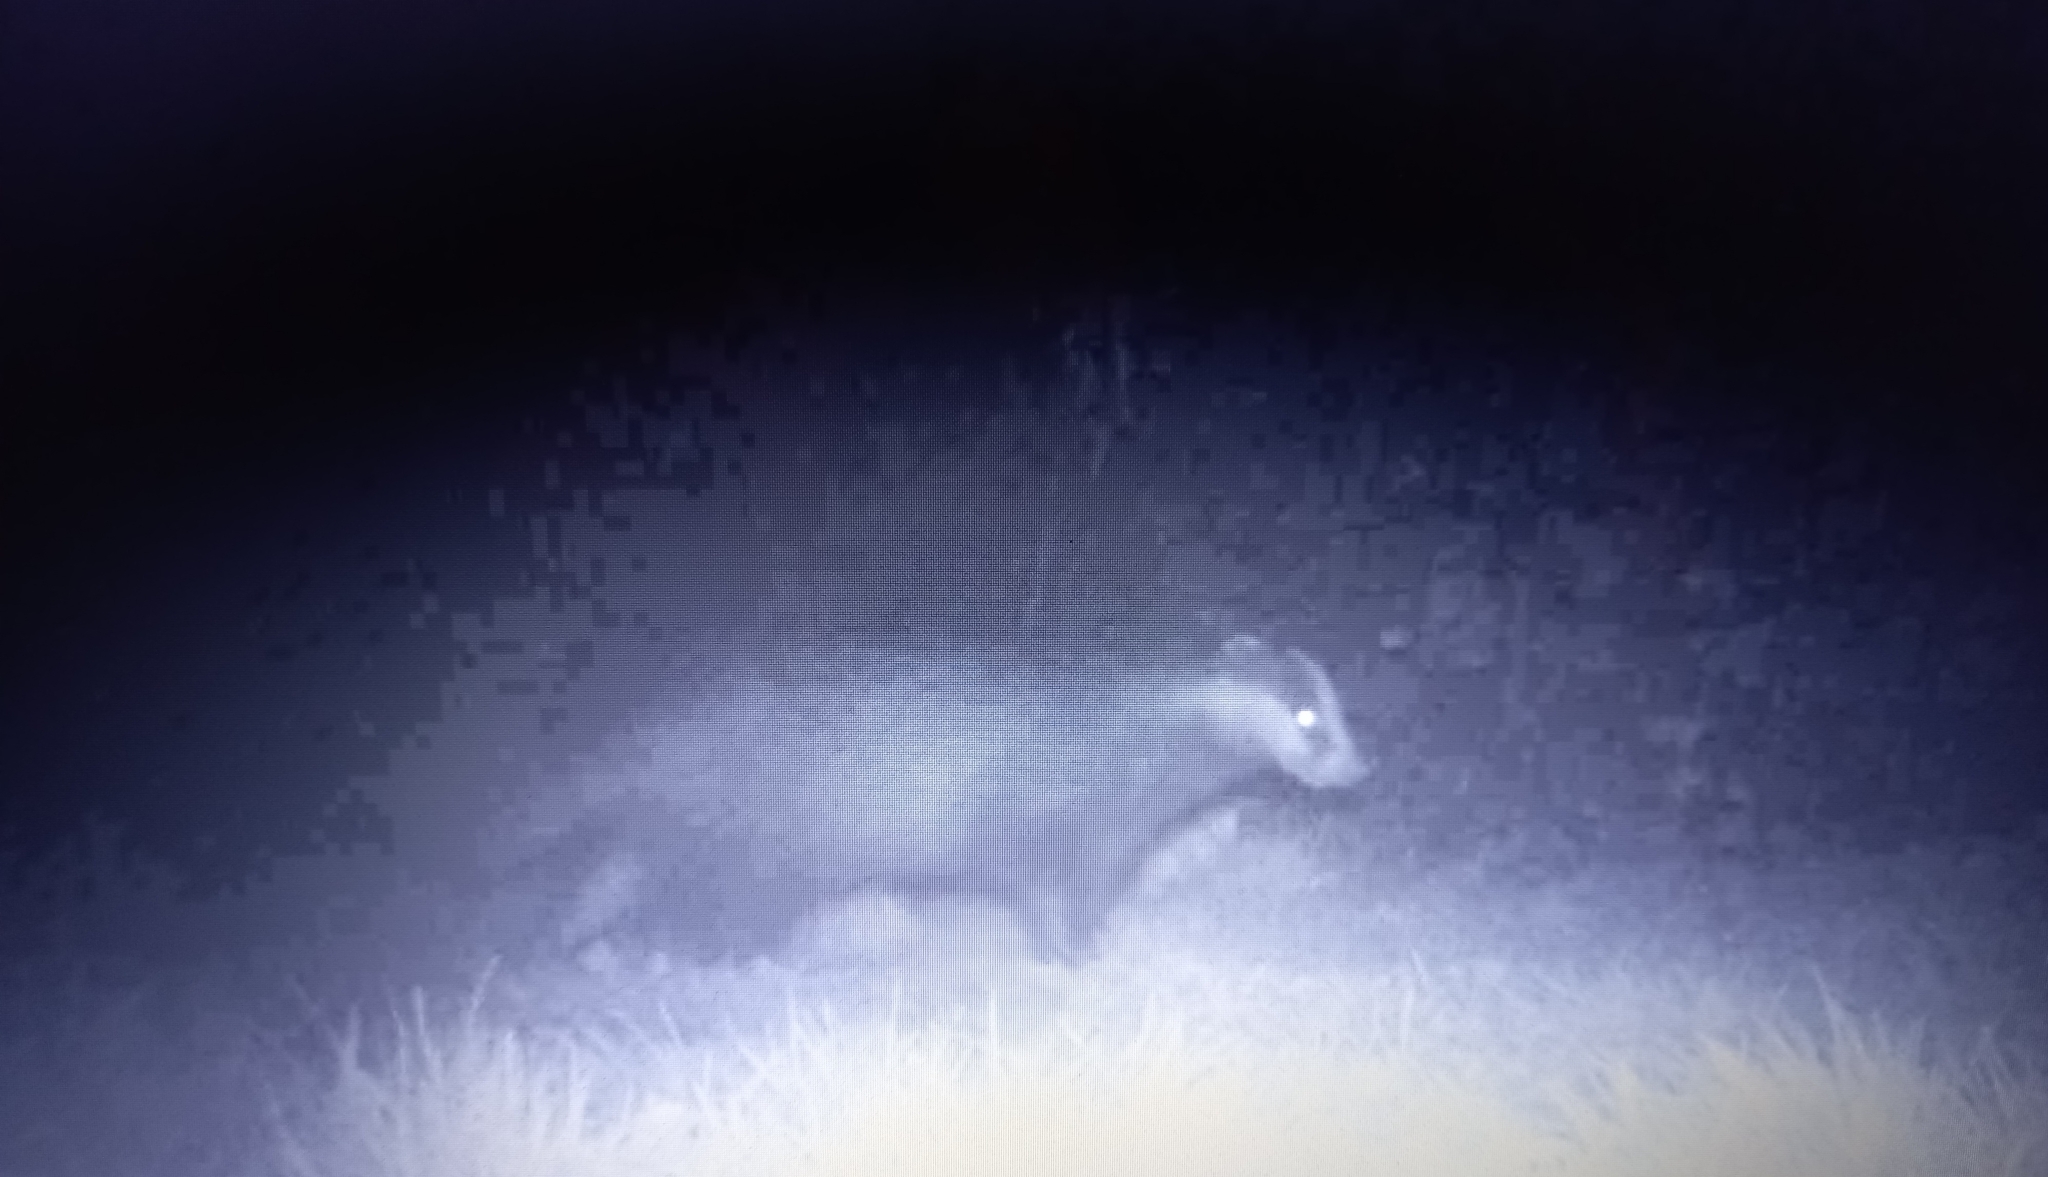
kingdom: Animalia
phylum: Chordata
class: Mammalia
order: Carnivora
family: Mustelidae
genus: Meles
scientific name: Meles meles
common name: Eurasian badger
